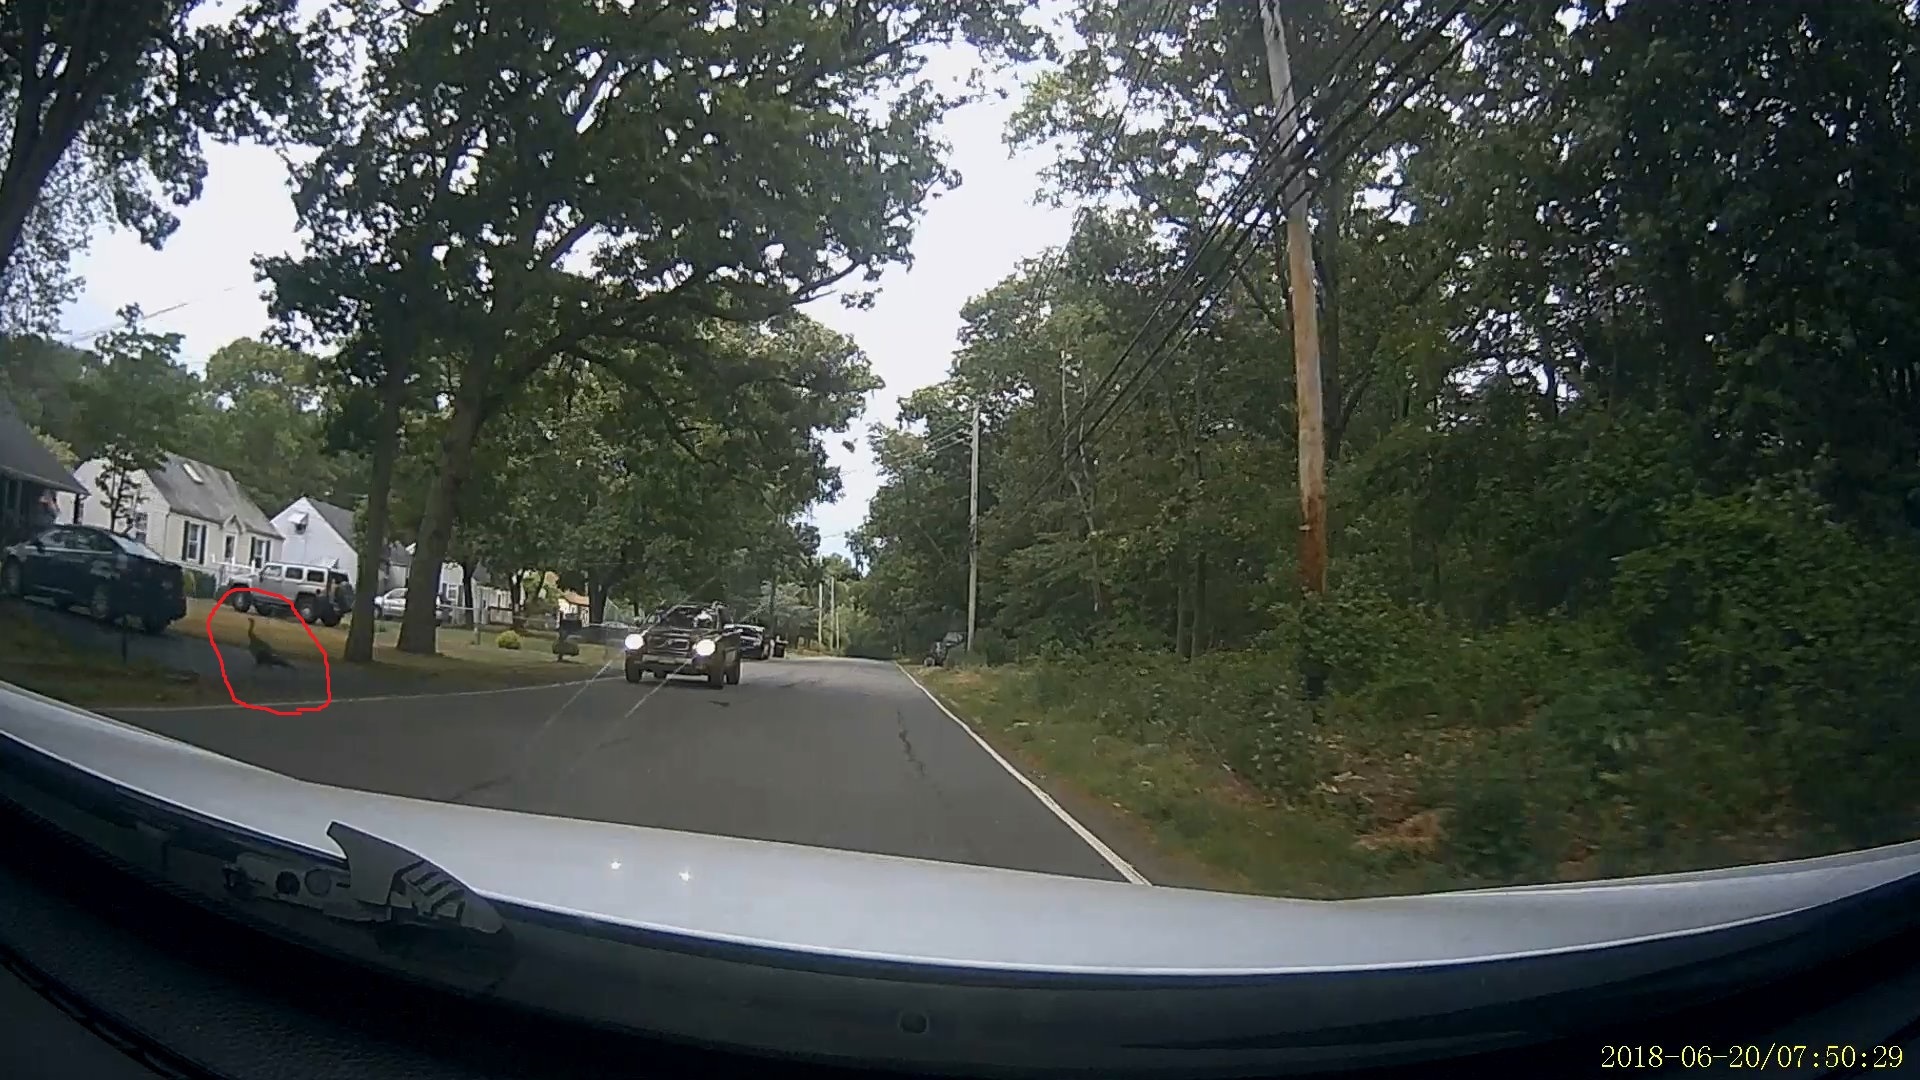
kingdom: Animalia
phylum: Chordata
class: Aves
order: Galliformes
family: Phasianidae
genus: Meleagris
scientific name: Meleagris gallopavo
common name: Wild turkey
